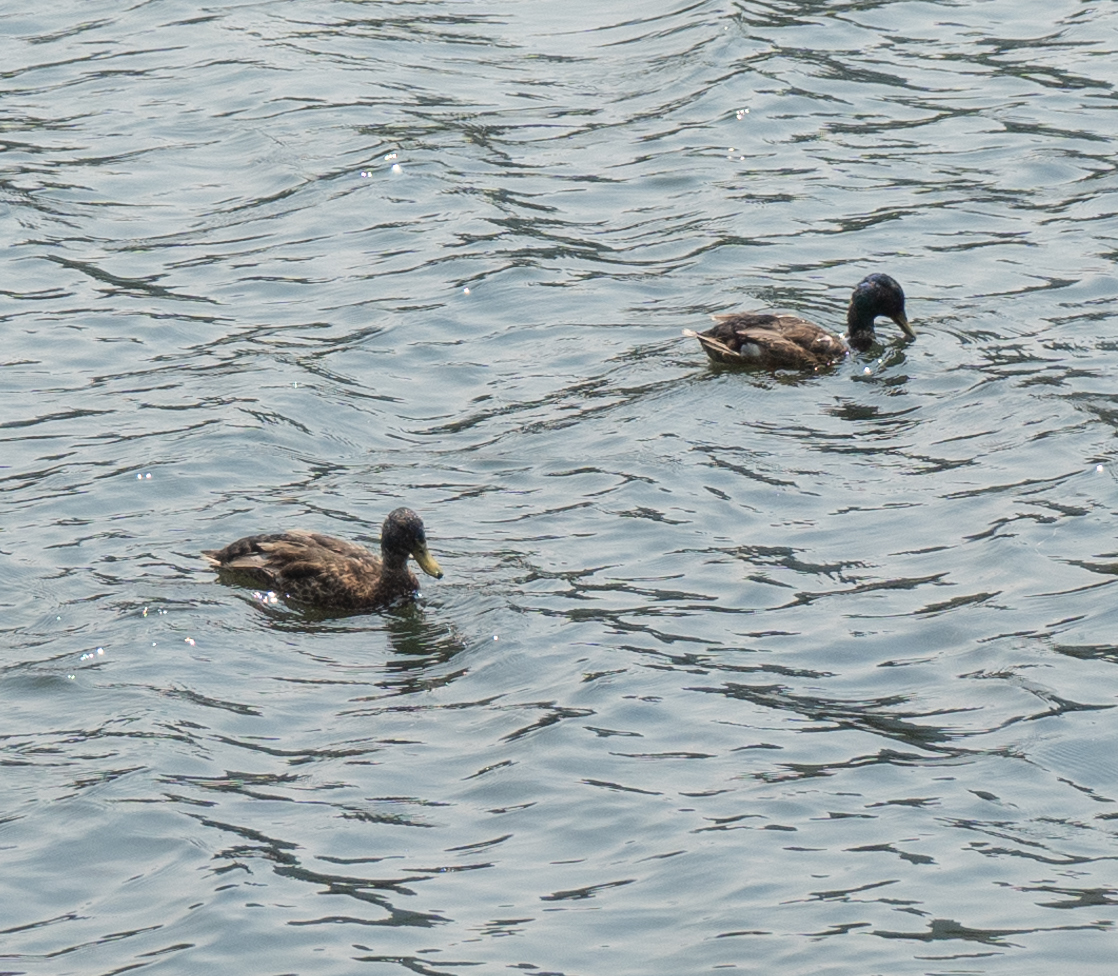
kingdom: Animalia
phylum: Chordata
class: Aves
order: Anseriformes
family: Anatidae
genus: Anas
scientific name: Anas platyrhynchos
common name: Mallard
